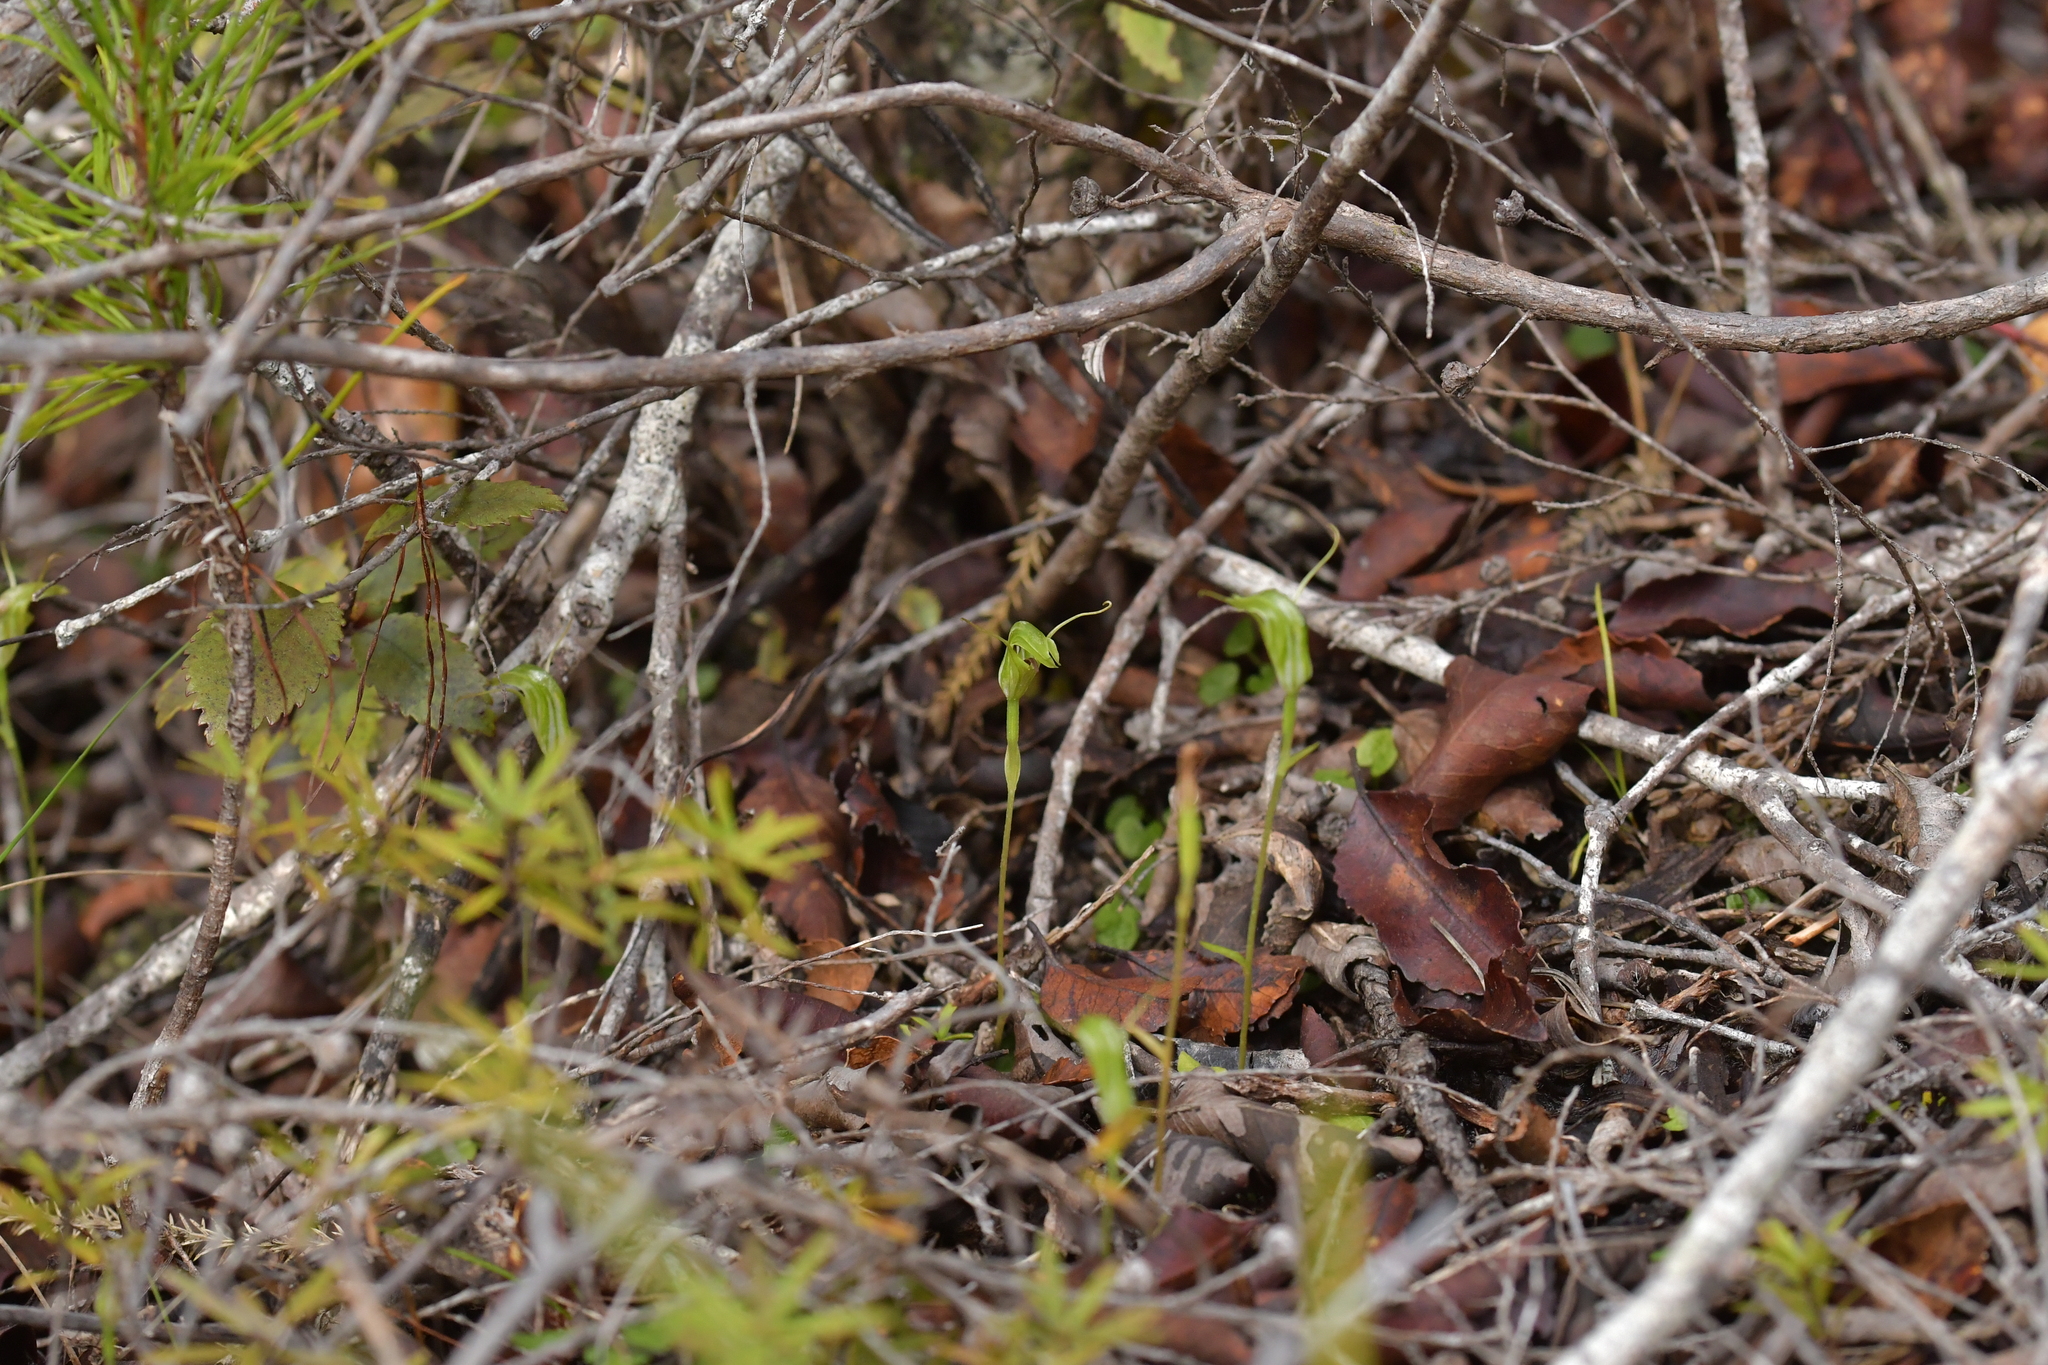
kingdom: Plantae
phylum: Tracheophyta
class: Liliopsida
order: Asparagales
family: Orchidaceae
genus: Pterostylis
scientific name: Pterostylis trullifolia
